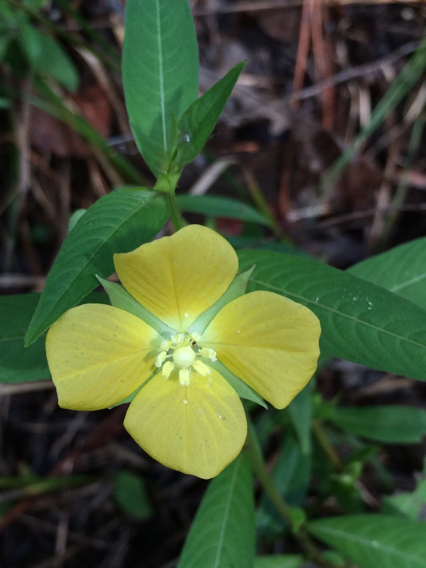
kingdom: Plantae
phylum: Tracheophyta
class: Magnoliopsida
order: Myrtales
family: Onagraceae
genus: Ludwigia
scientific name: Ludwigia octovalvis
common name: Water-primrose
